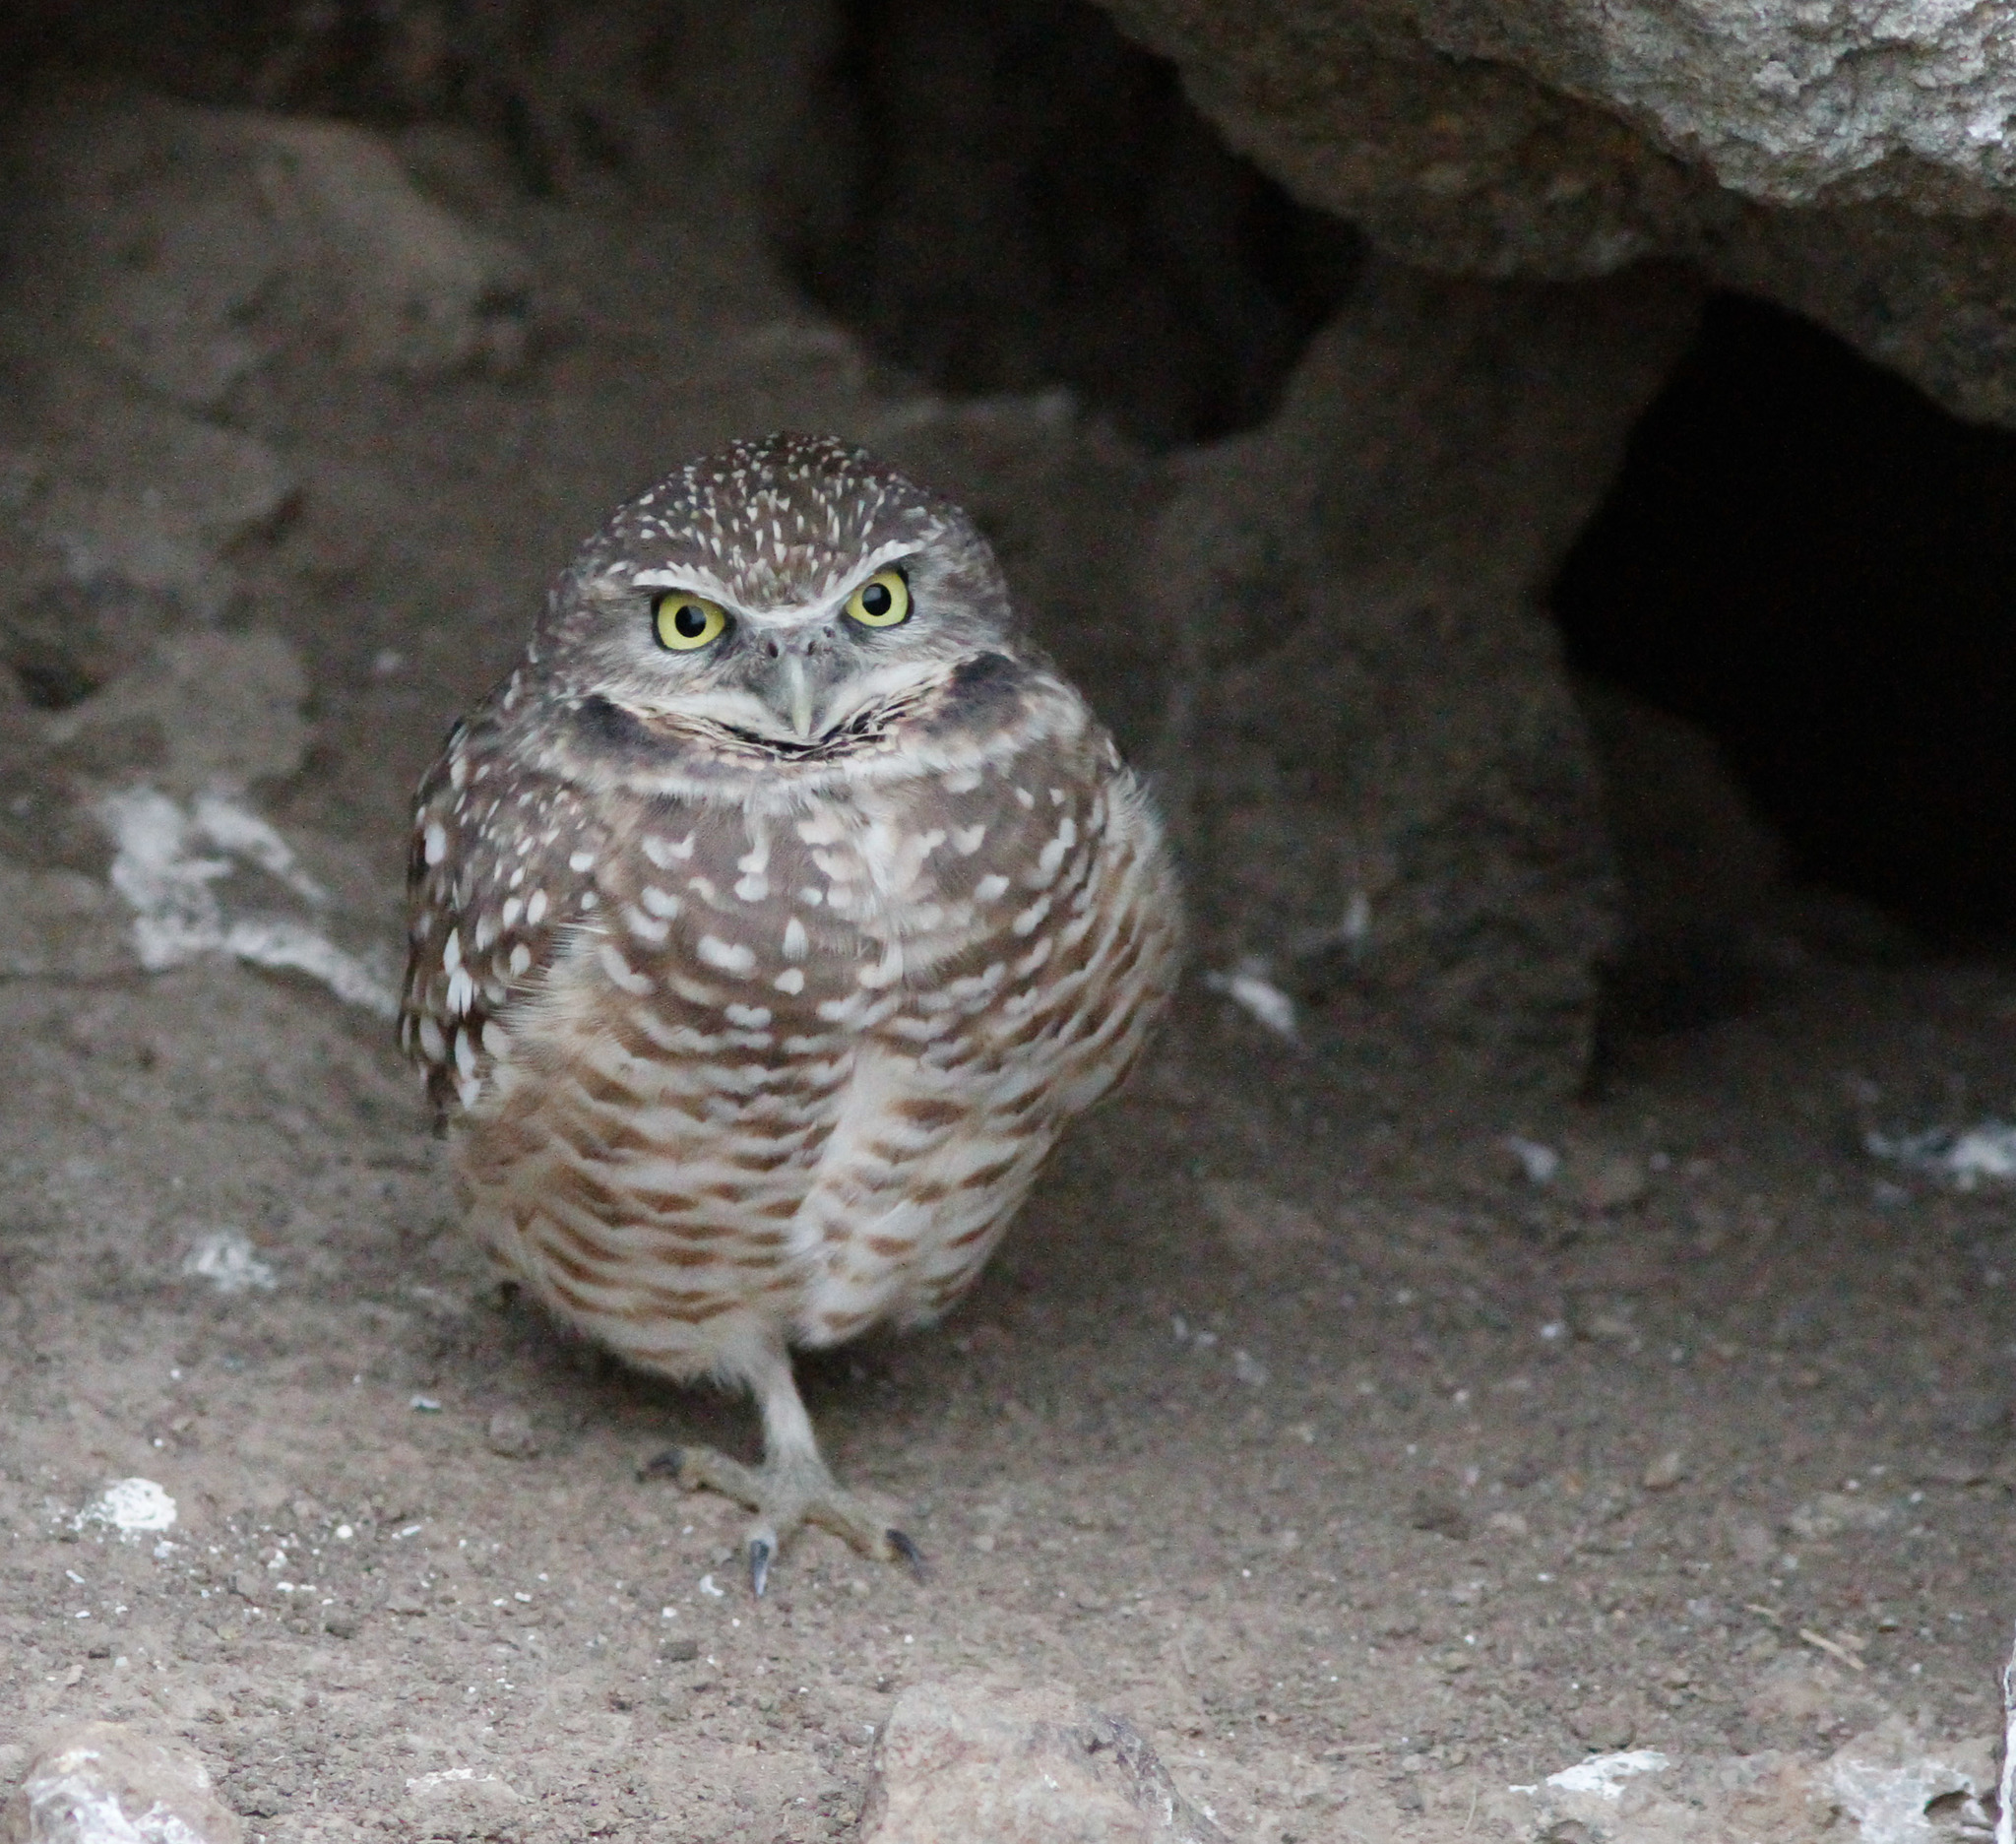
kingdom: Animalia
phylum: Chordata
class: Aves
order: Strigiformes
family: Strigidae
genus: Athene
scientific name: Athene cunicularia
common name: Burrowing owl
